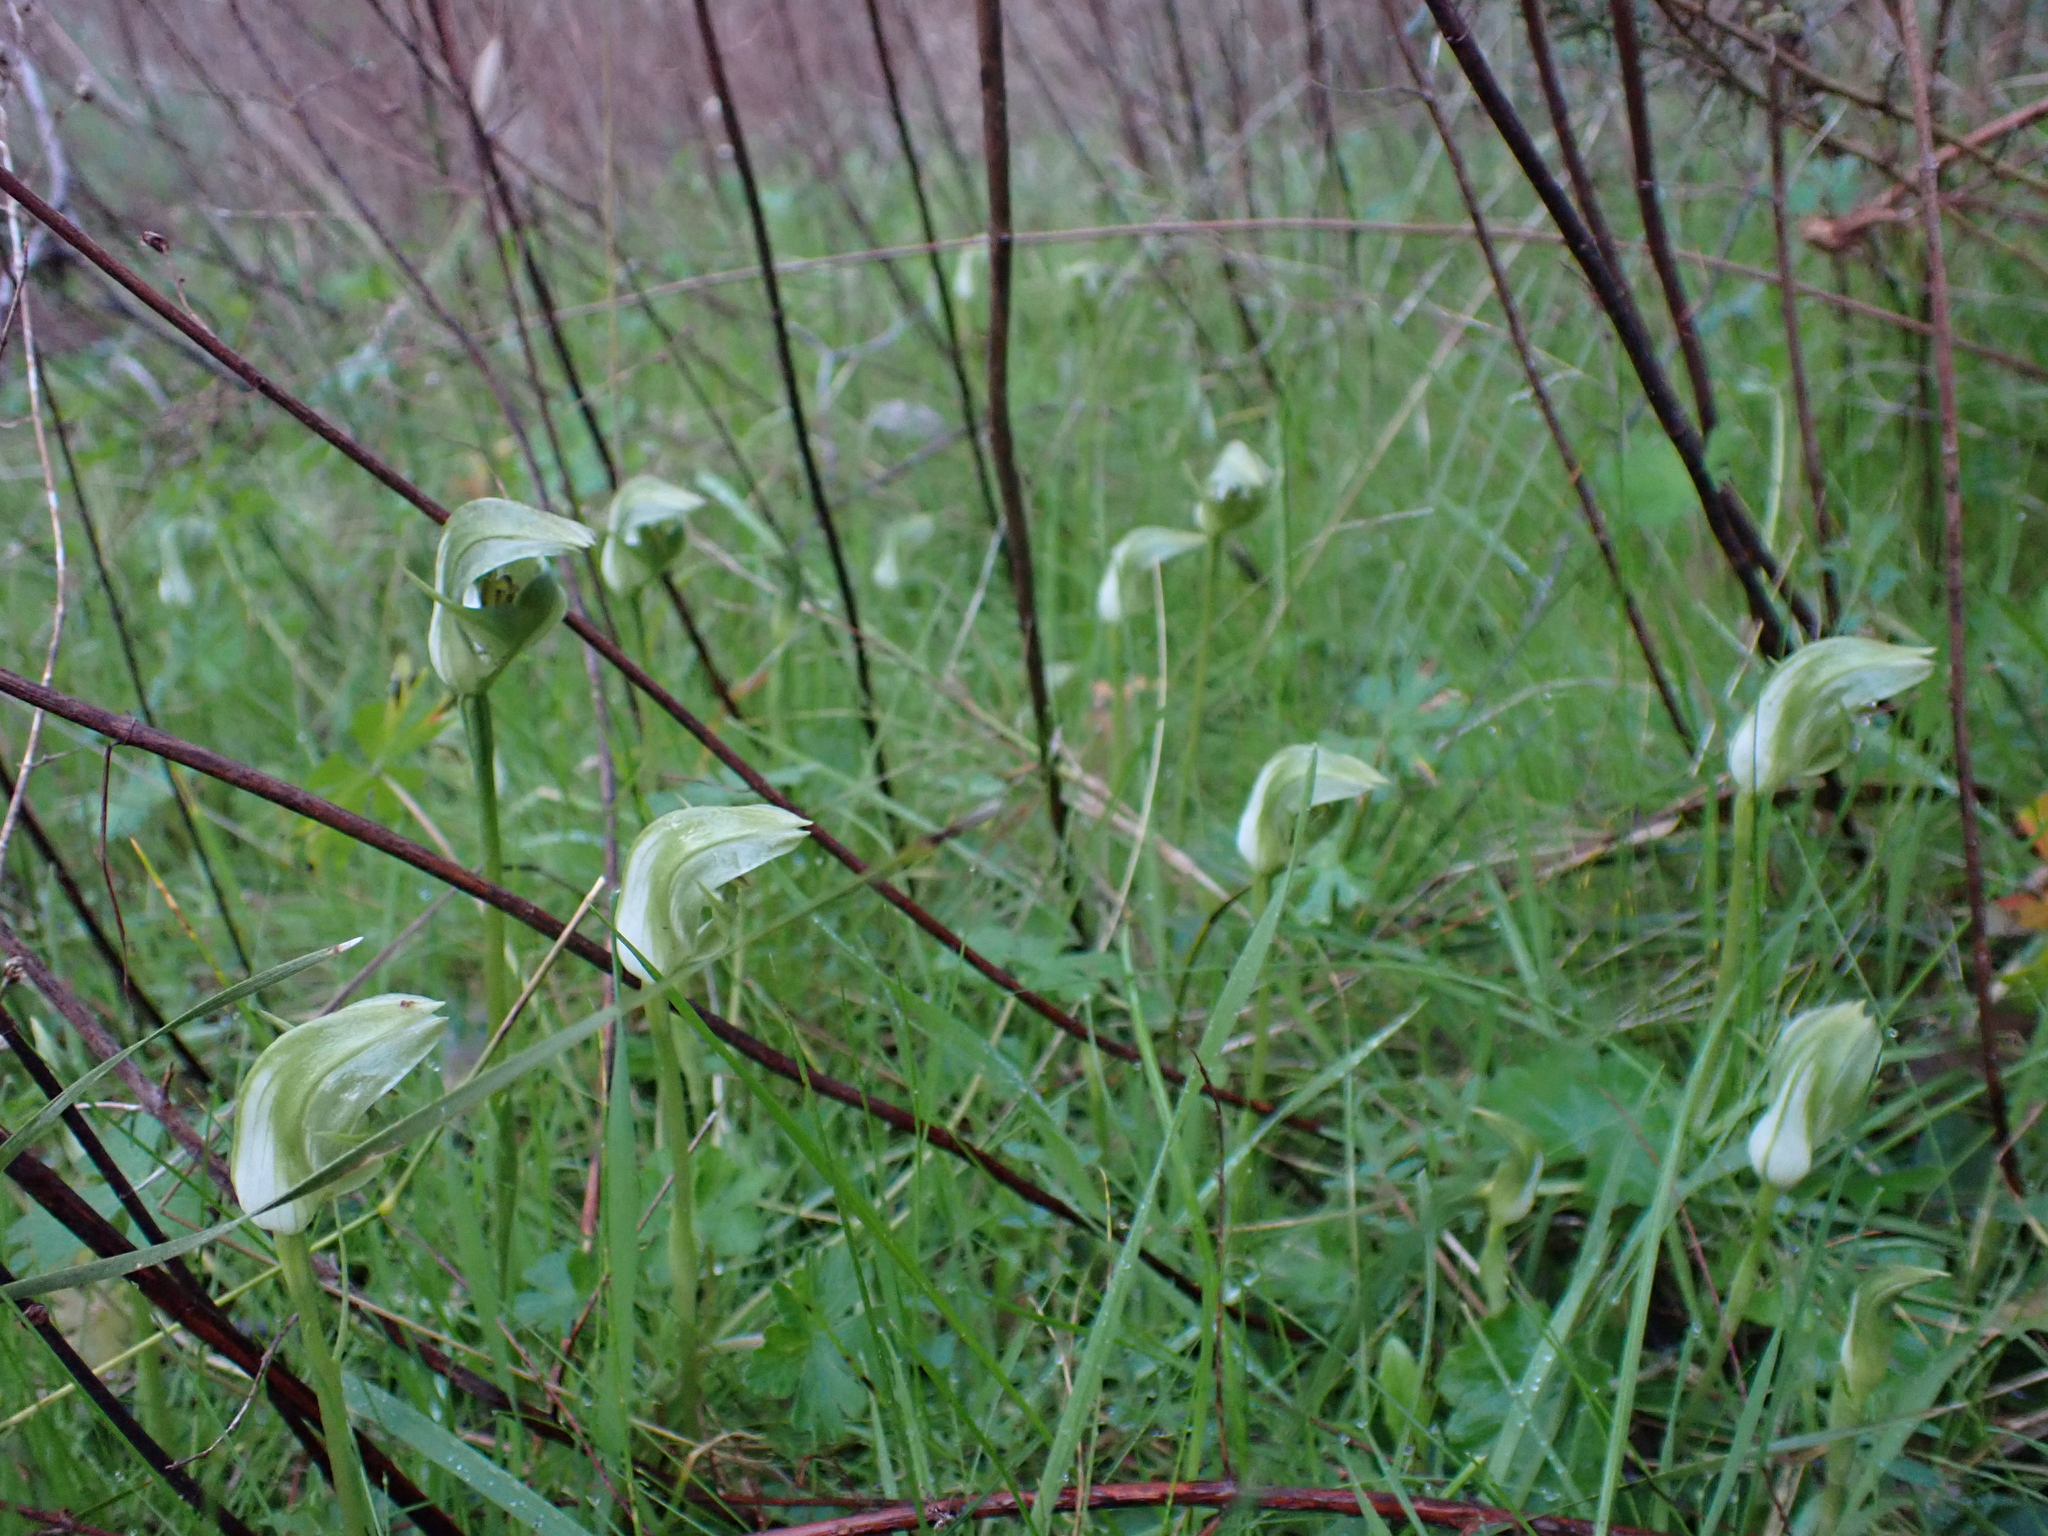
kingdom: Plantae
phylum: Tracheophyta
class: Liliopsida
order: Asparagales
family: Orchidaceae
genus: Pterostylis
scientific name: Pterostylis curta
